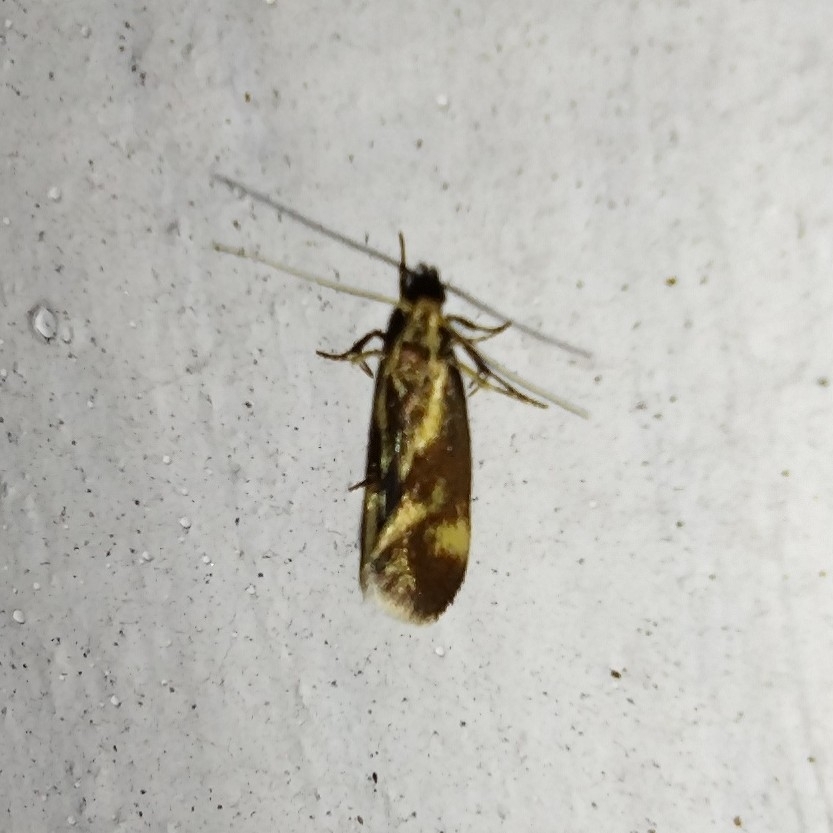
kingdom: Animalia
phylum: Arthropoda
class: Insecta
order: Lepidoptera
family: Oecophoridae
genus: Borkhausenia
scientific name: Borkhausenia cinnamomea
